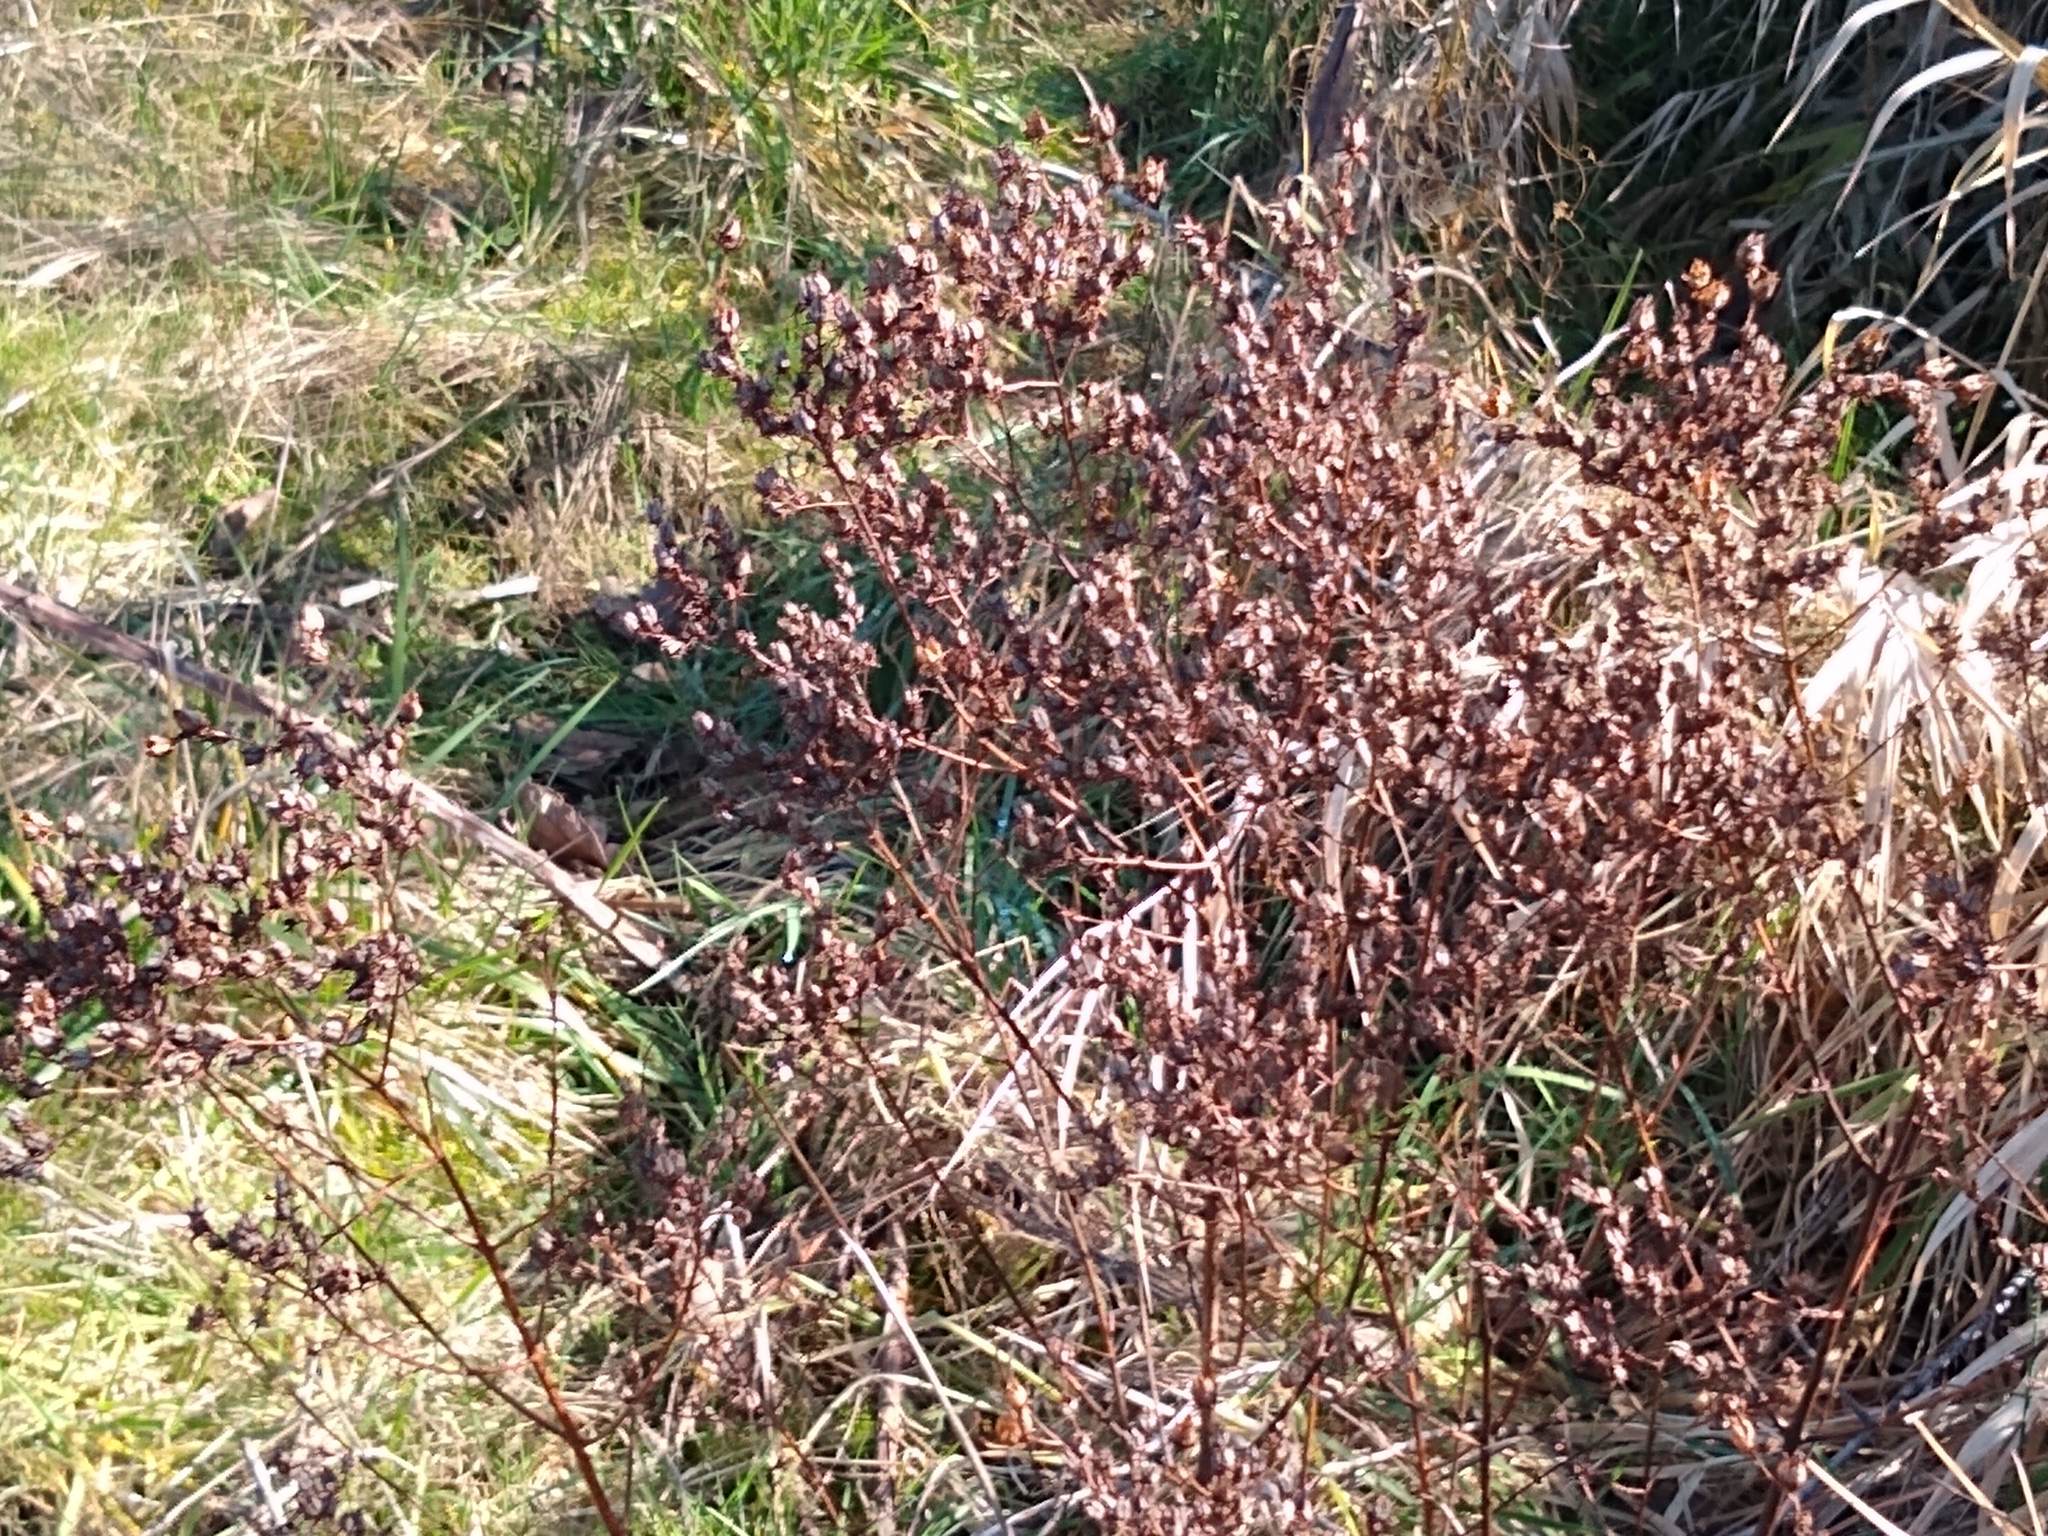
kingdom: Plantae
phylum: Tracheophyta
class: Magnoliopsida
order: Malpighiales
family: Hypericaceae
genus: Hypericum
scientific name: Hypericum perforatum
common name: Common st. johnswort
